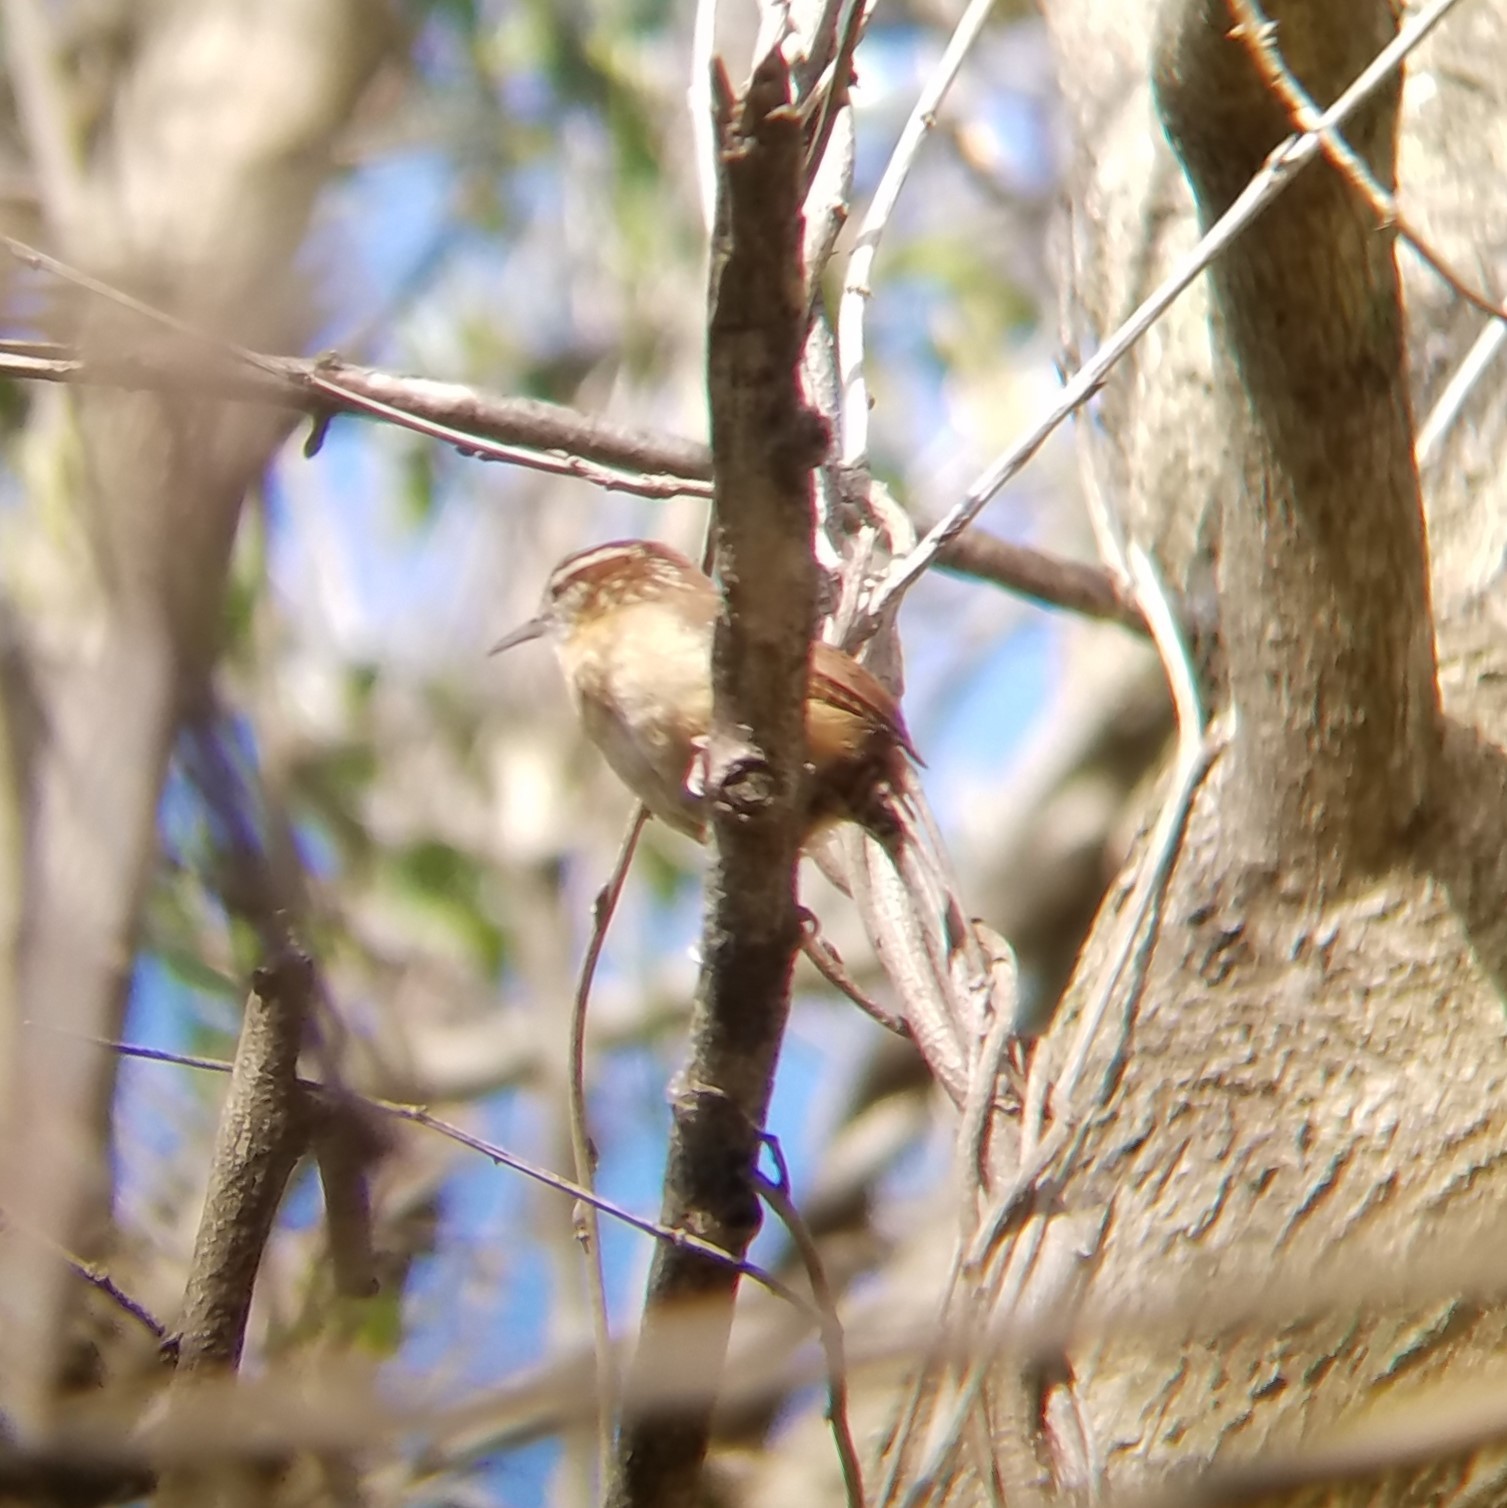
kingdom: Animalia
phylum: Chordata
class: Aves
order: Passeriformes
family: Troglodytidae
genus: Thryothorus
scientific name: Thryothorus ludovicianus
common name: Carolina wren
